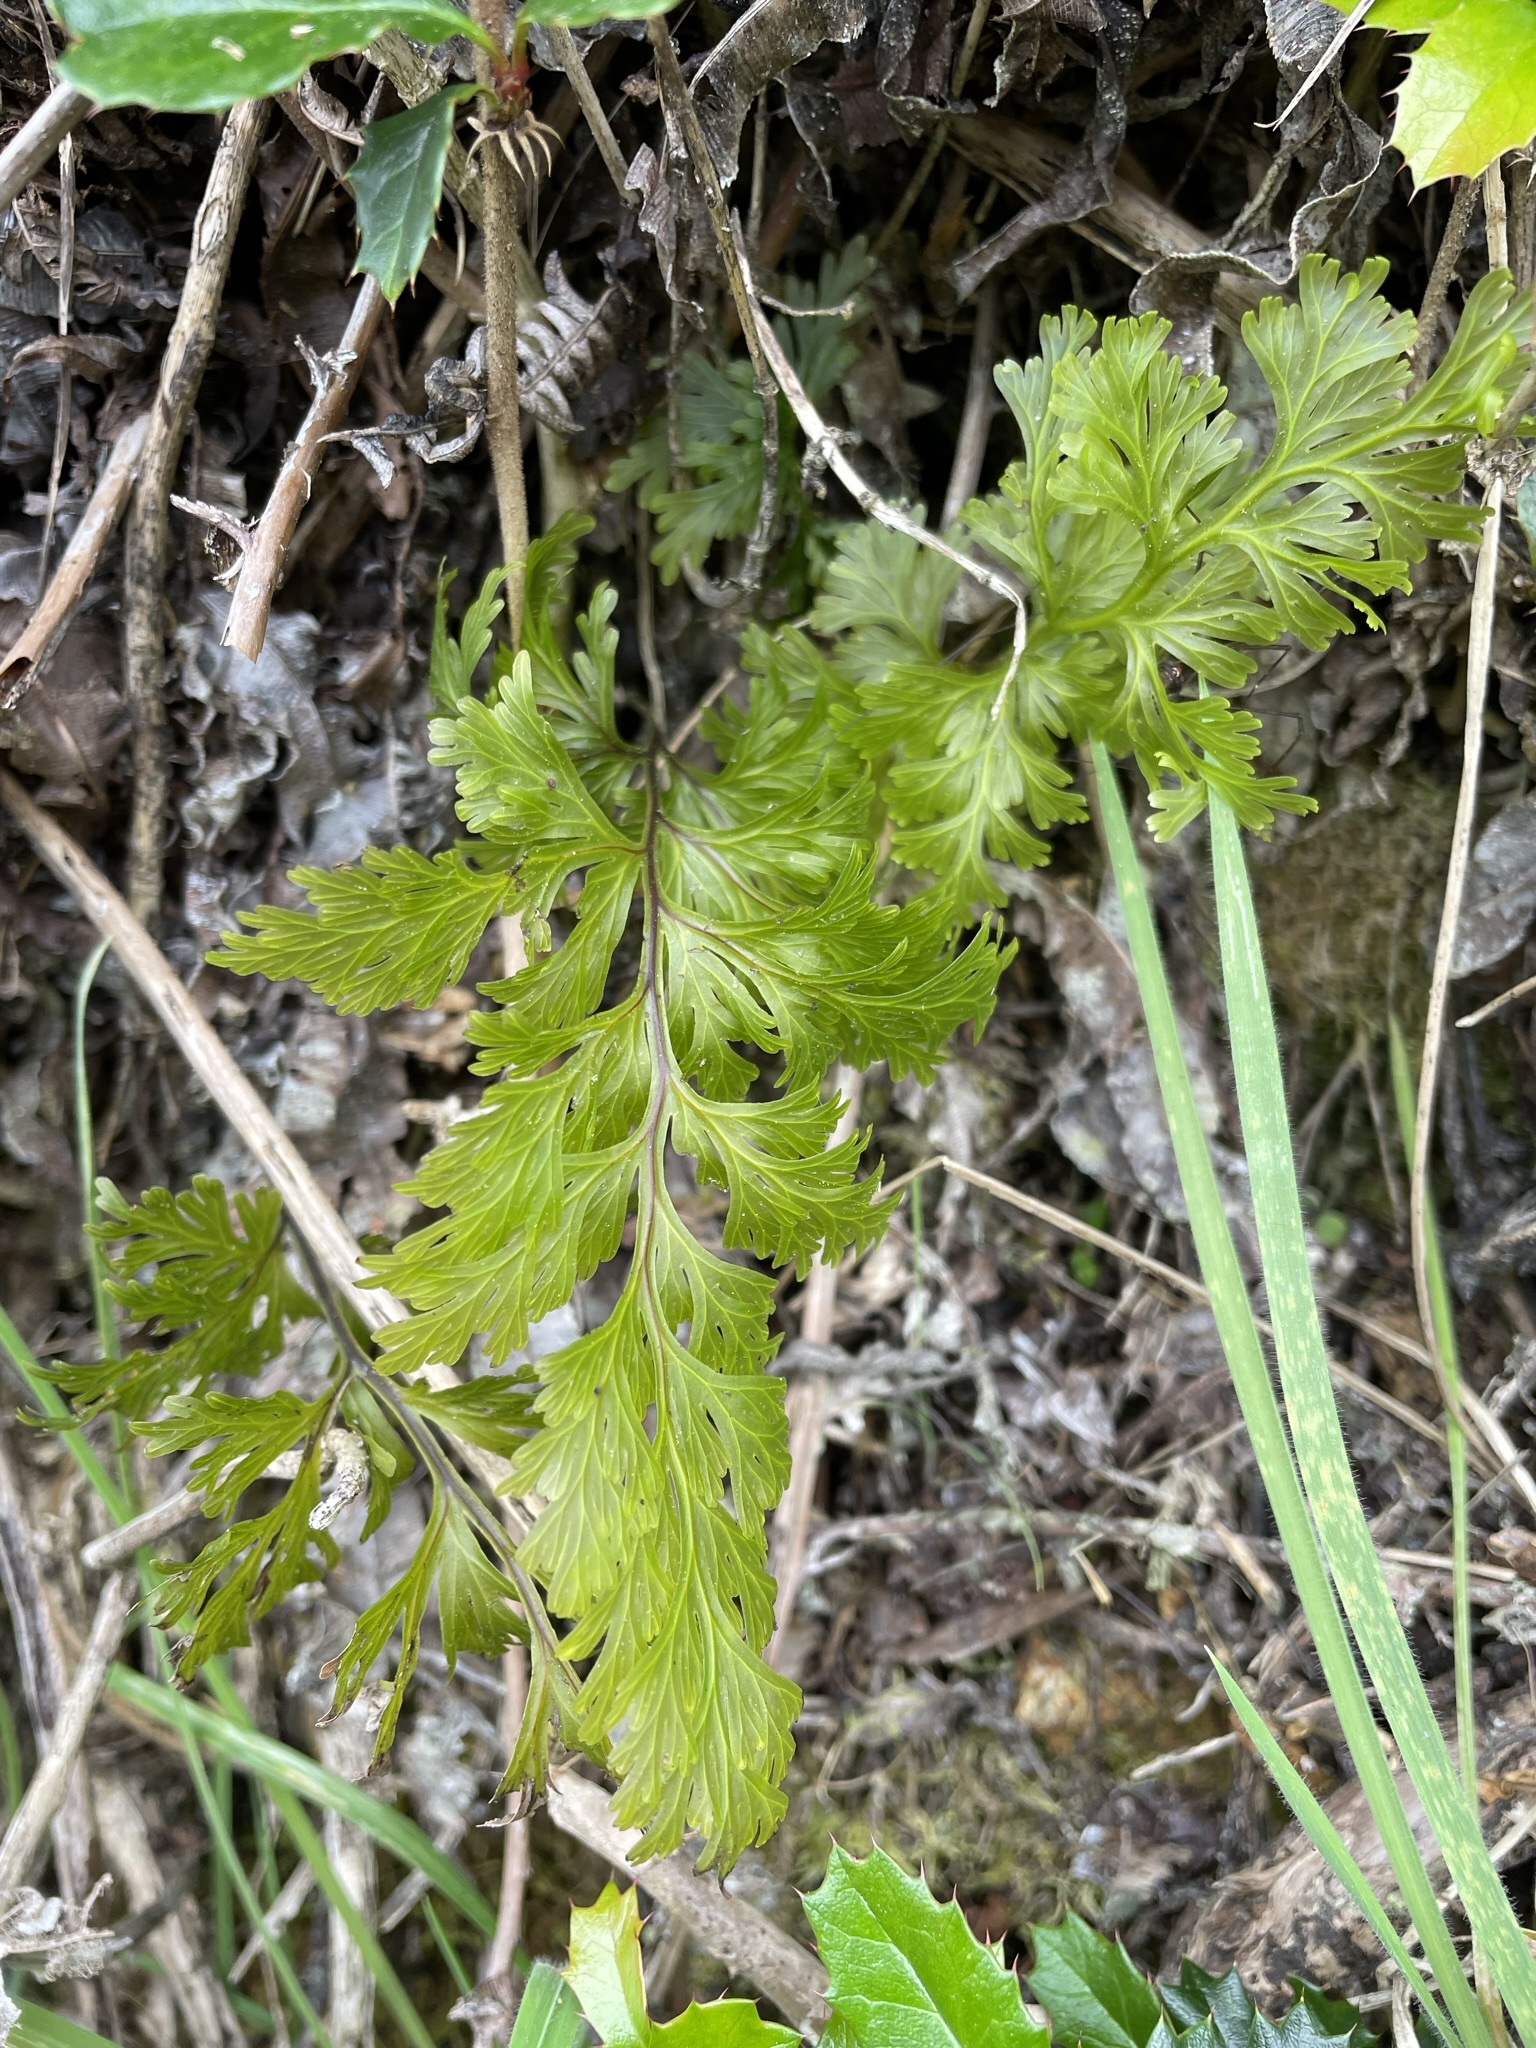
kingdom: Plantae
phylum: Tracheophyta
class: Polypodiopsida
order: Hymenophyllales
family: Hymenophyllaceae
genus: Hymenophyllum
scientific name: Hymenophyllum dilatatum
